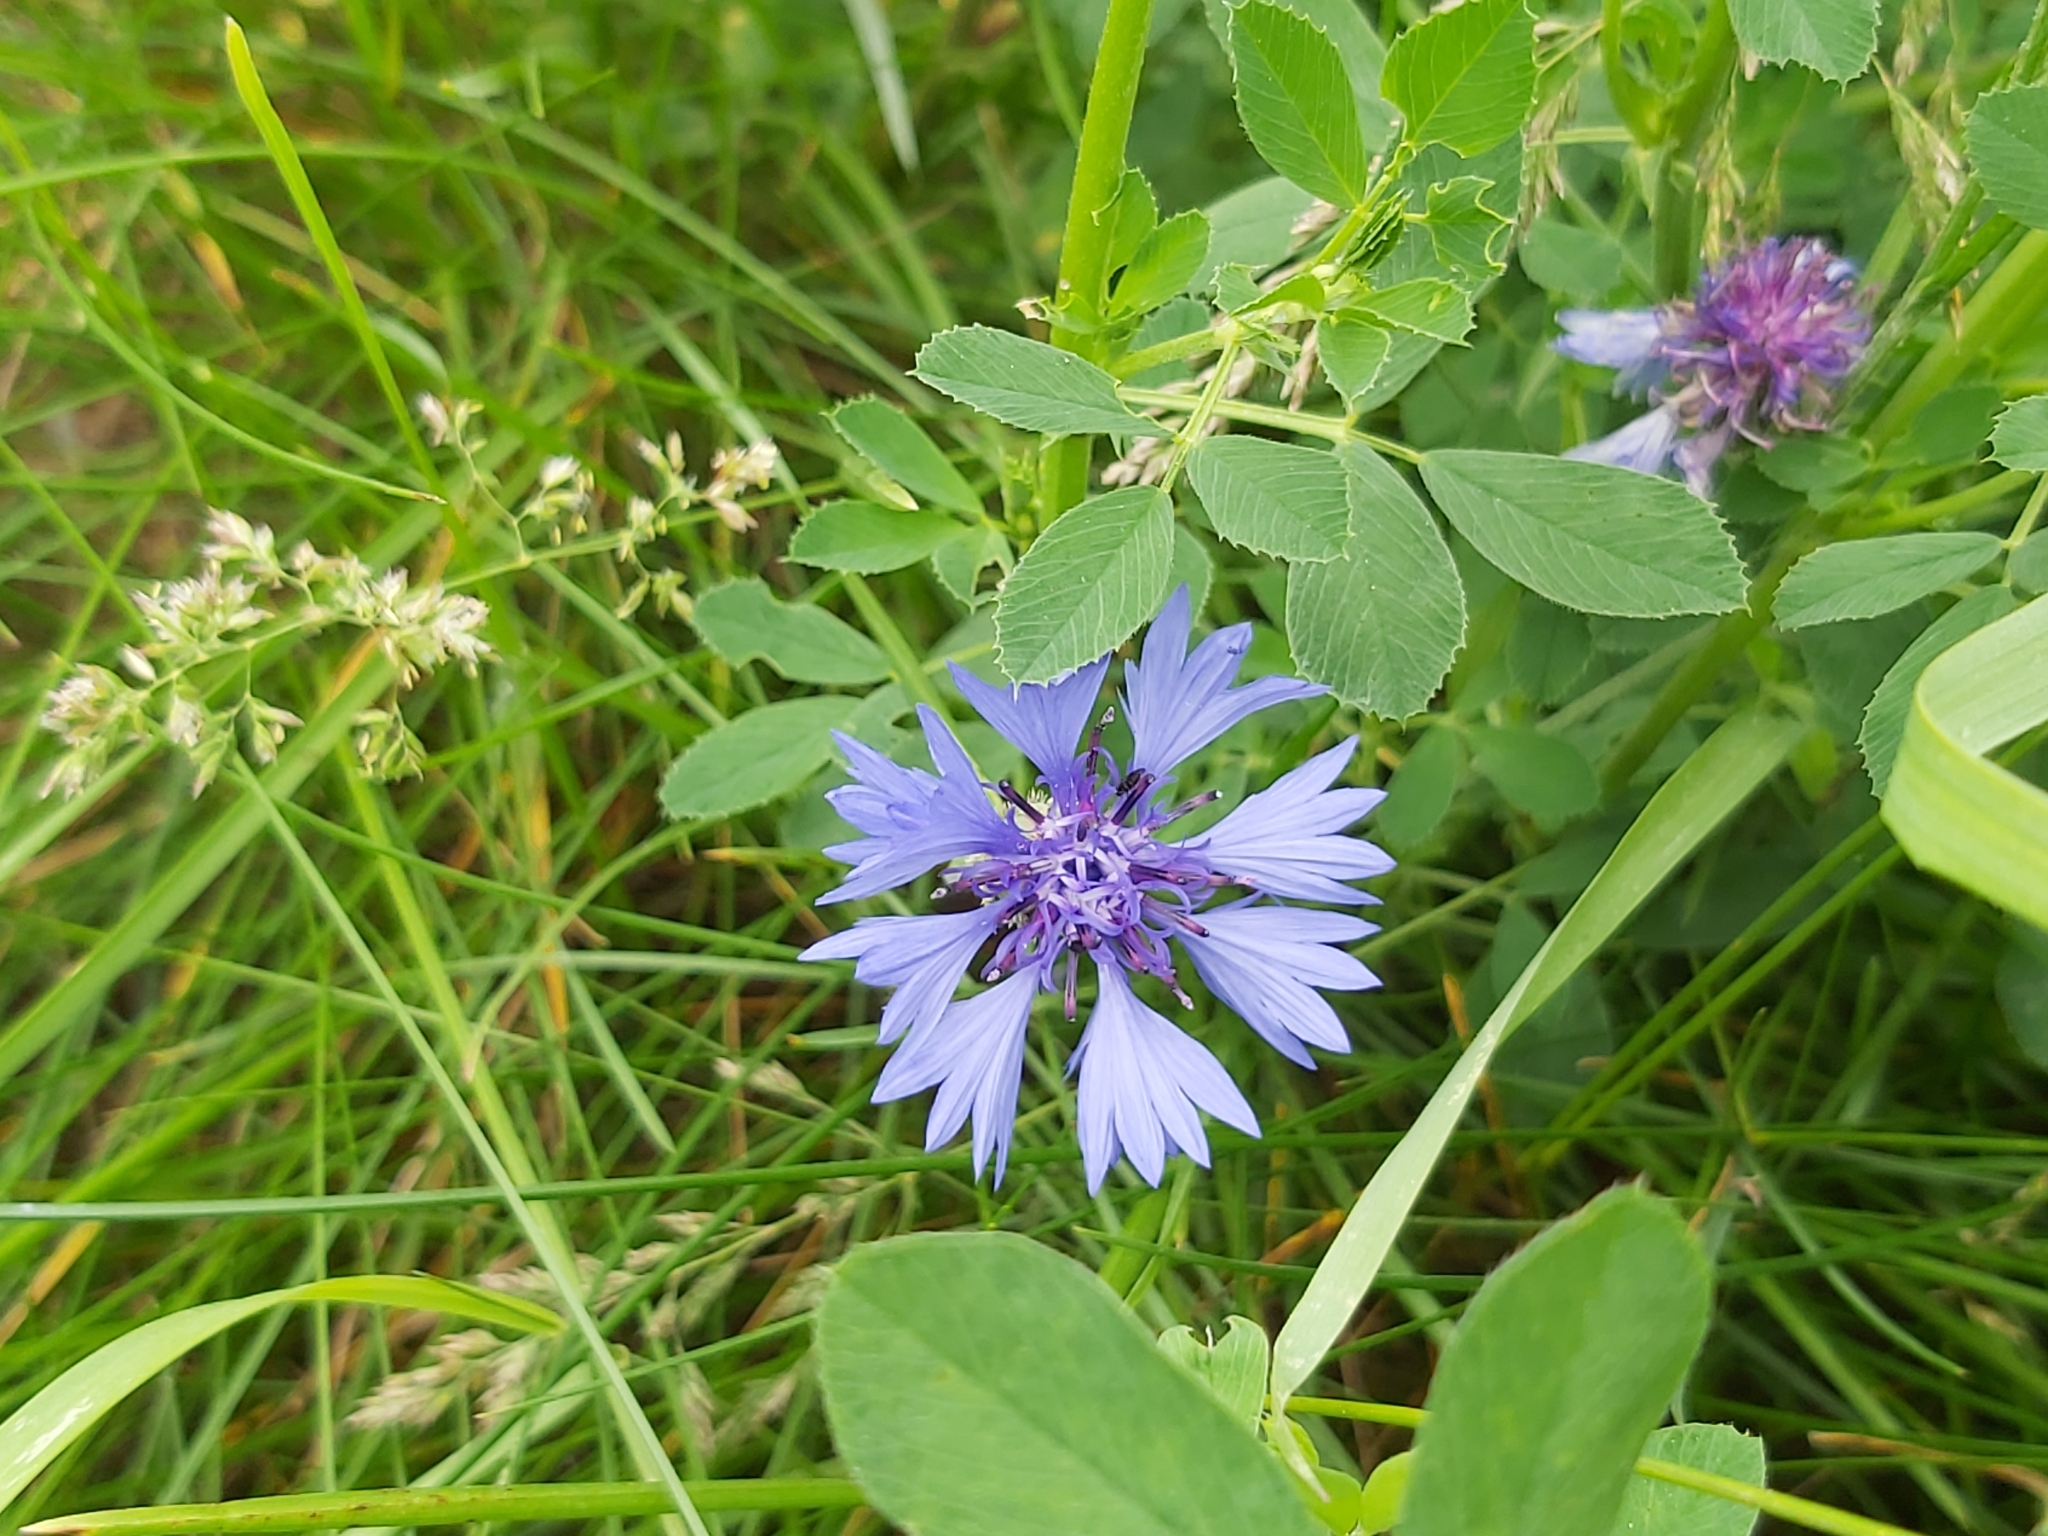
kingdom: Plantae
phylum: Tracheophyta
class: Magnoliopsida
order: Asterales
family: Asteraceae
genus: Centaurea
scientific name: Centaurea cyanus
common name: Cornflower
